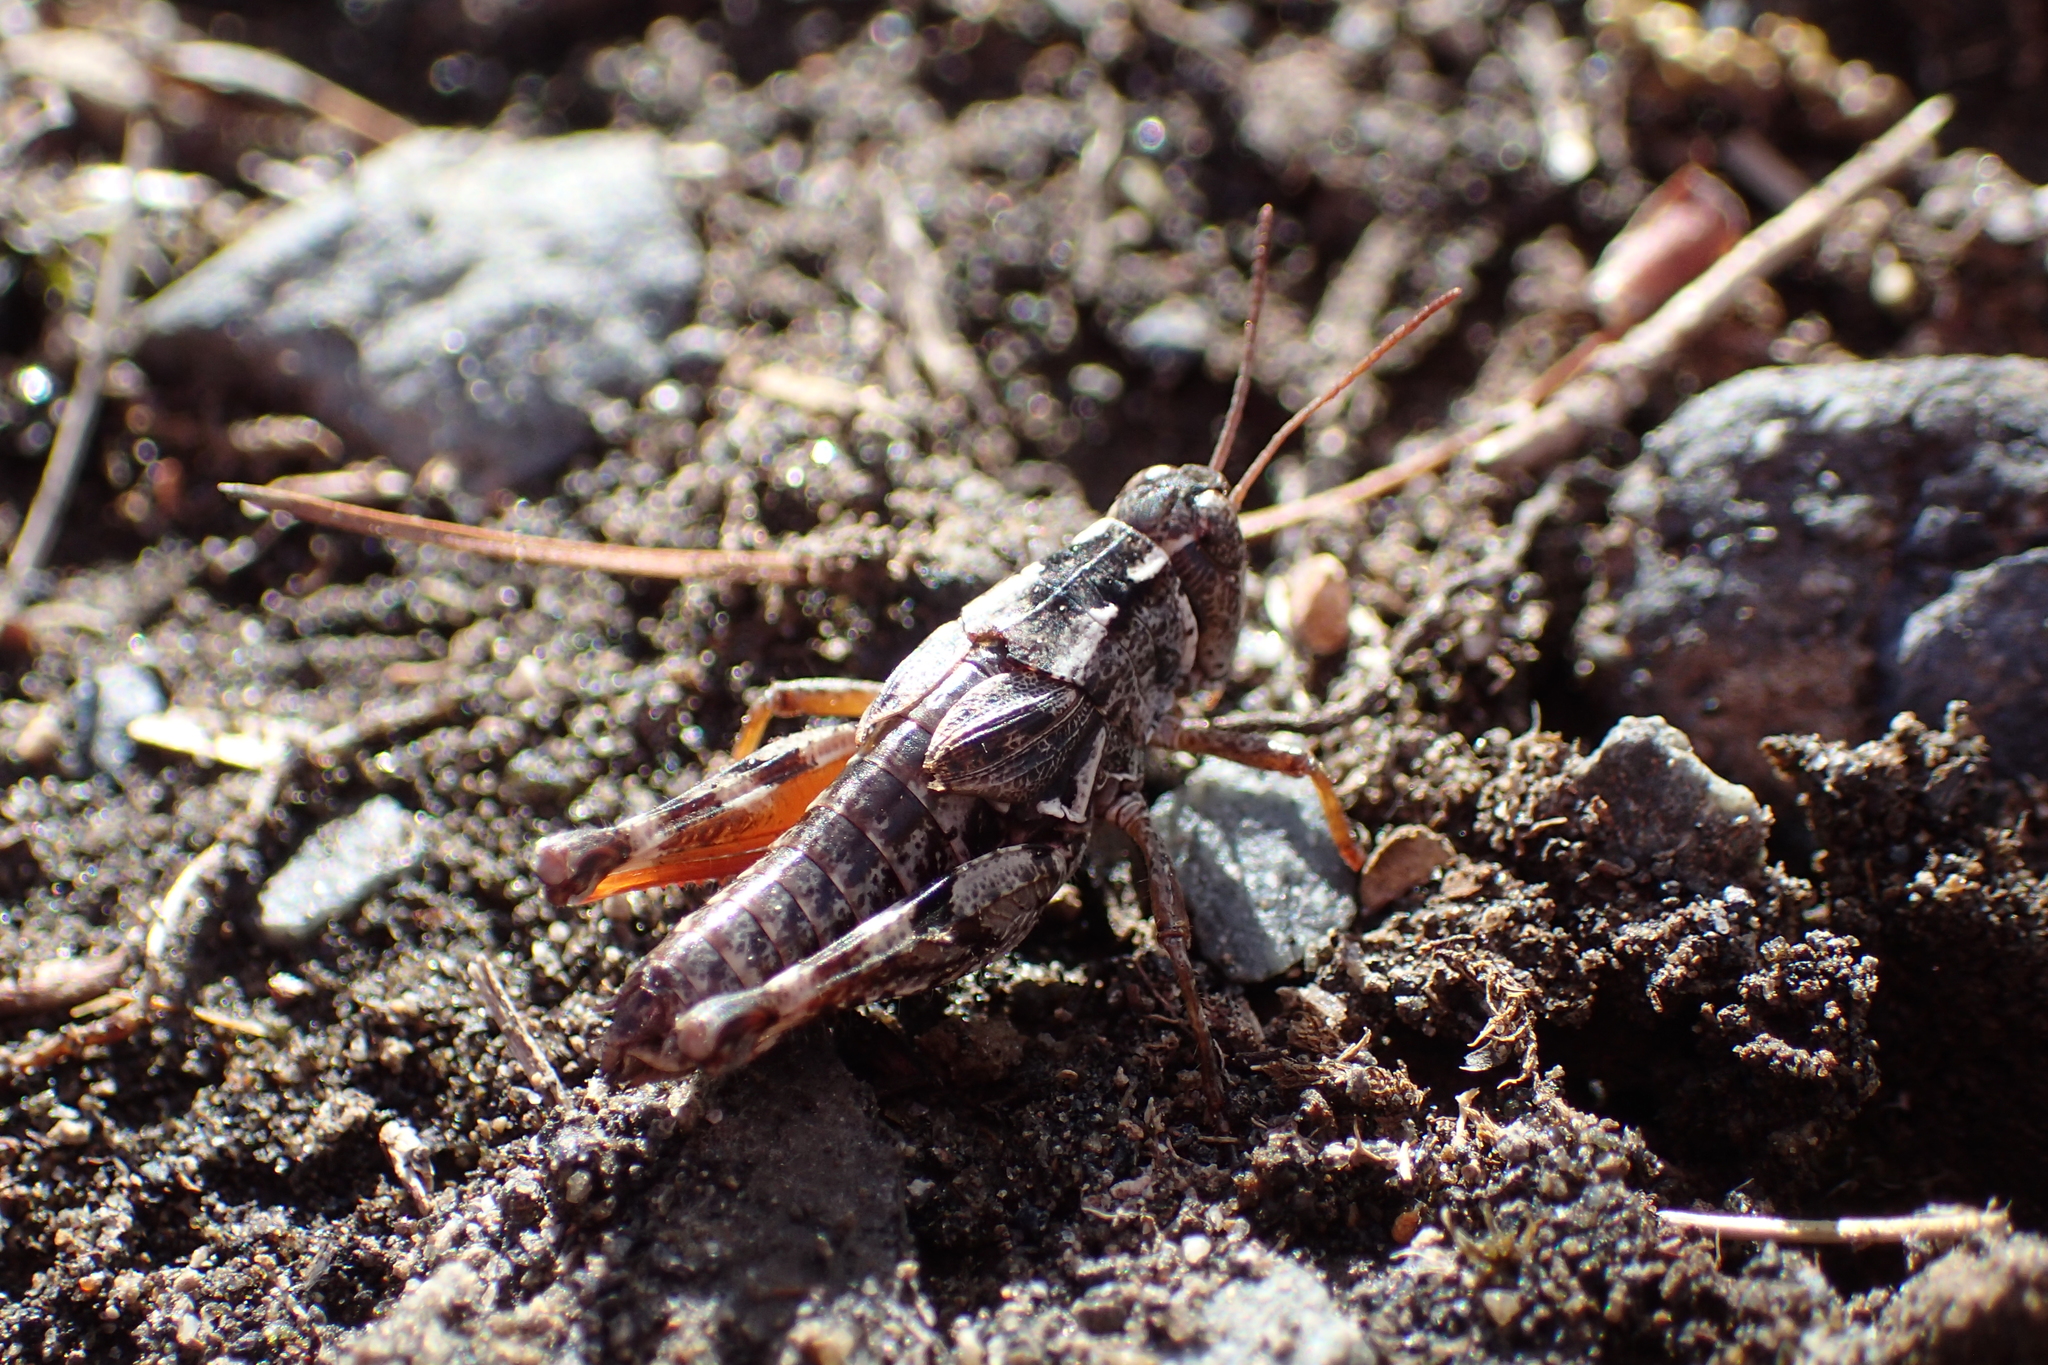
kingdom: Animalia
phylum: Arthropoda
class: Insecta
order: Orthoptera
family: Acrididae
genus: Phaulacridium
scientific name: Phaulacridium marginale
